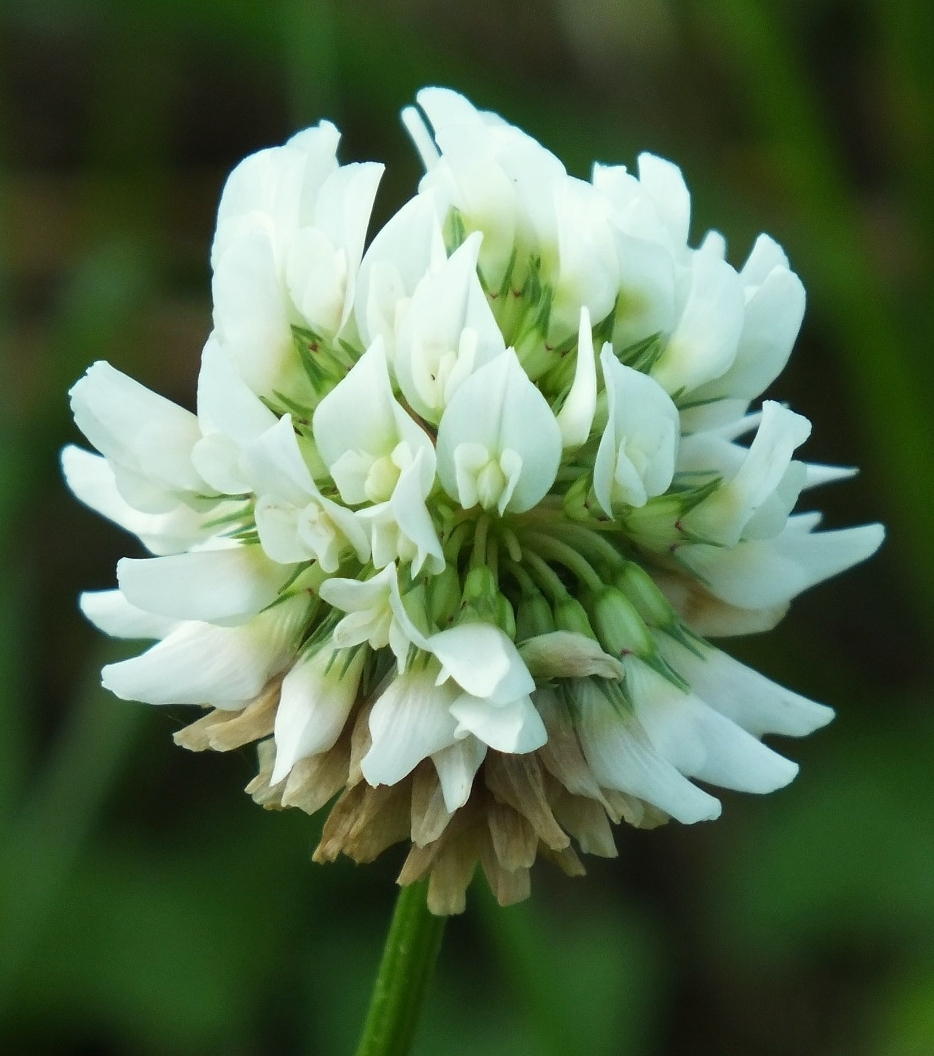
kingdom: Plantae
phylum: Tracheophyta
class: Magnoliopsida
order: Fabales
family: Fabaceae
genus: Trifolium
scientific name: Trifolium repens
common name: White clover
